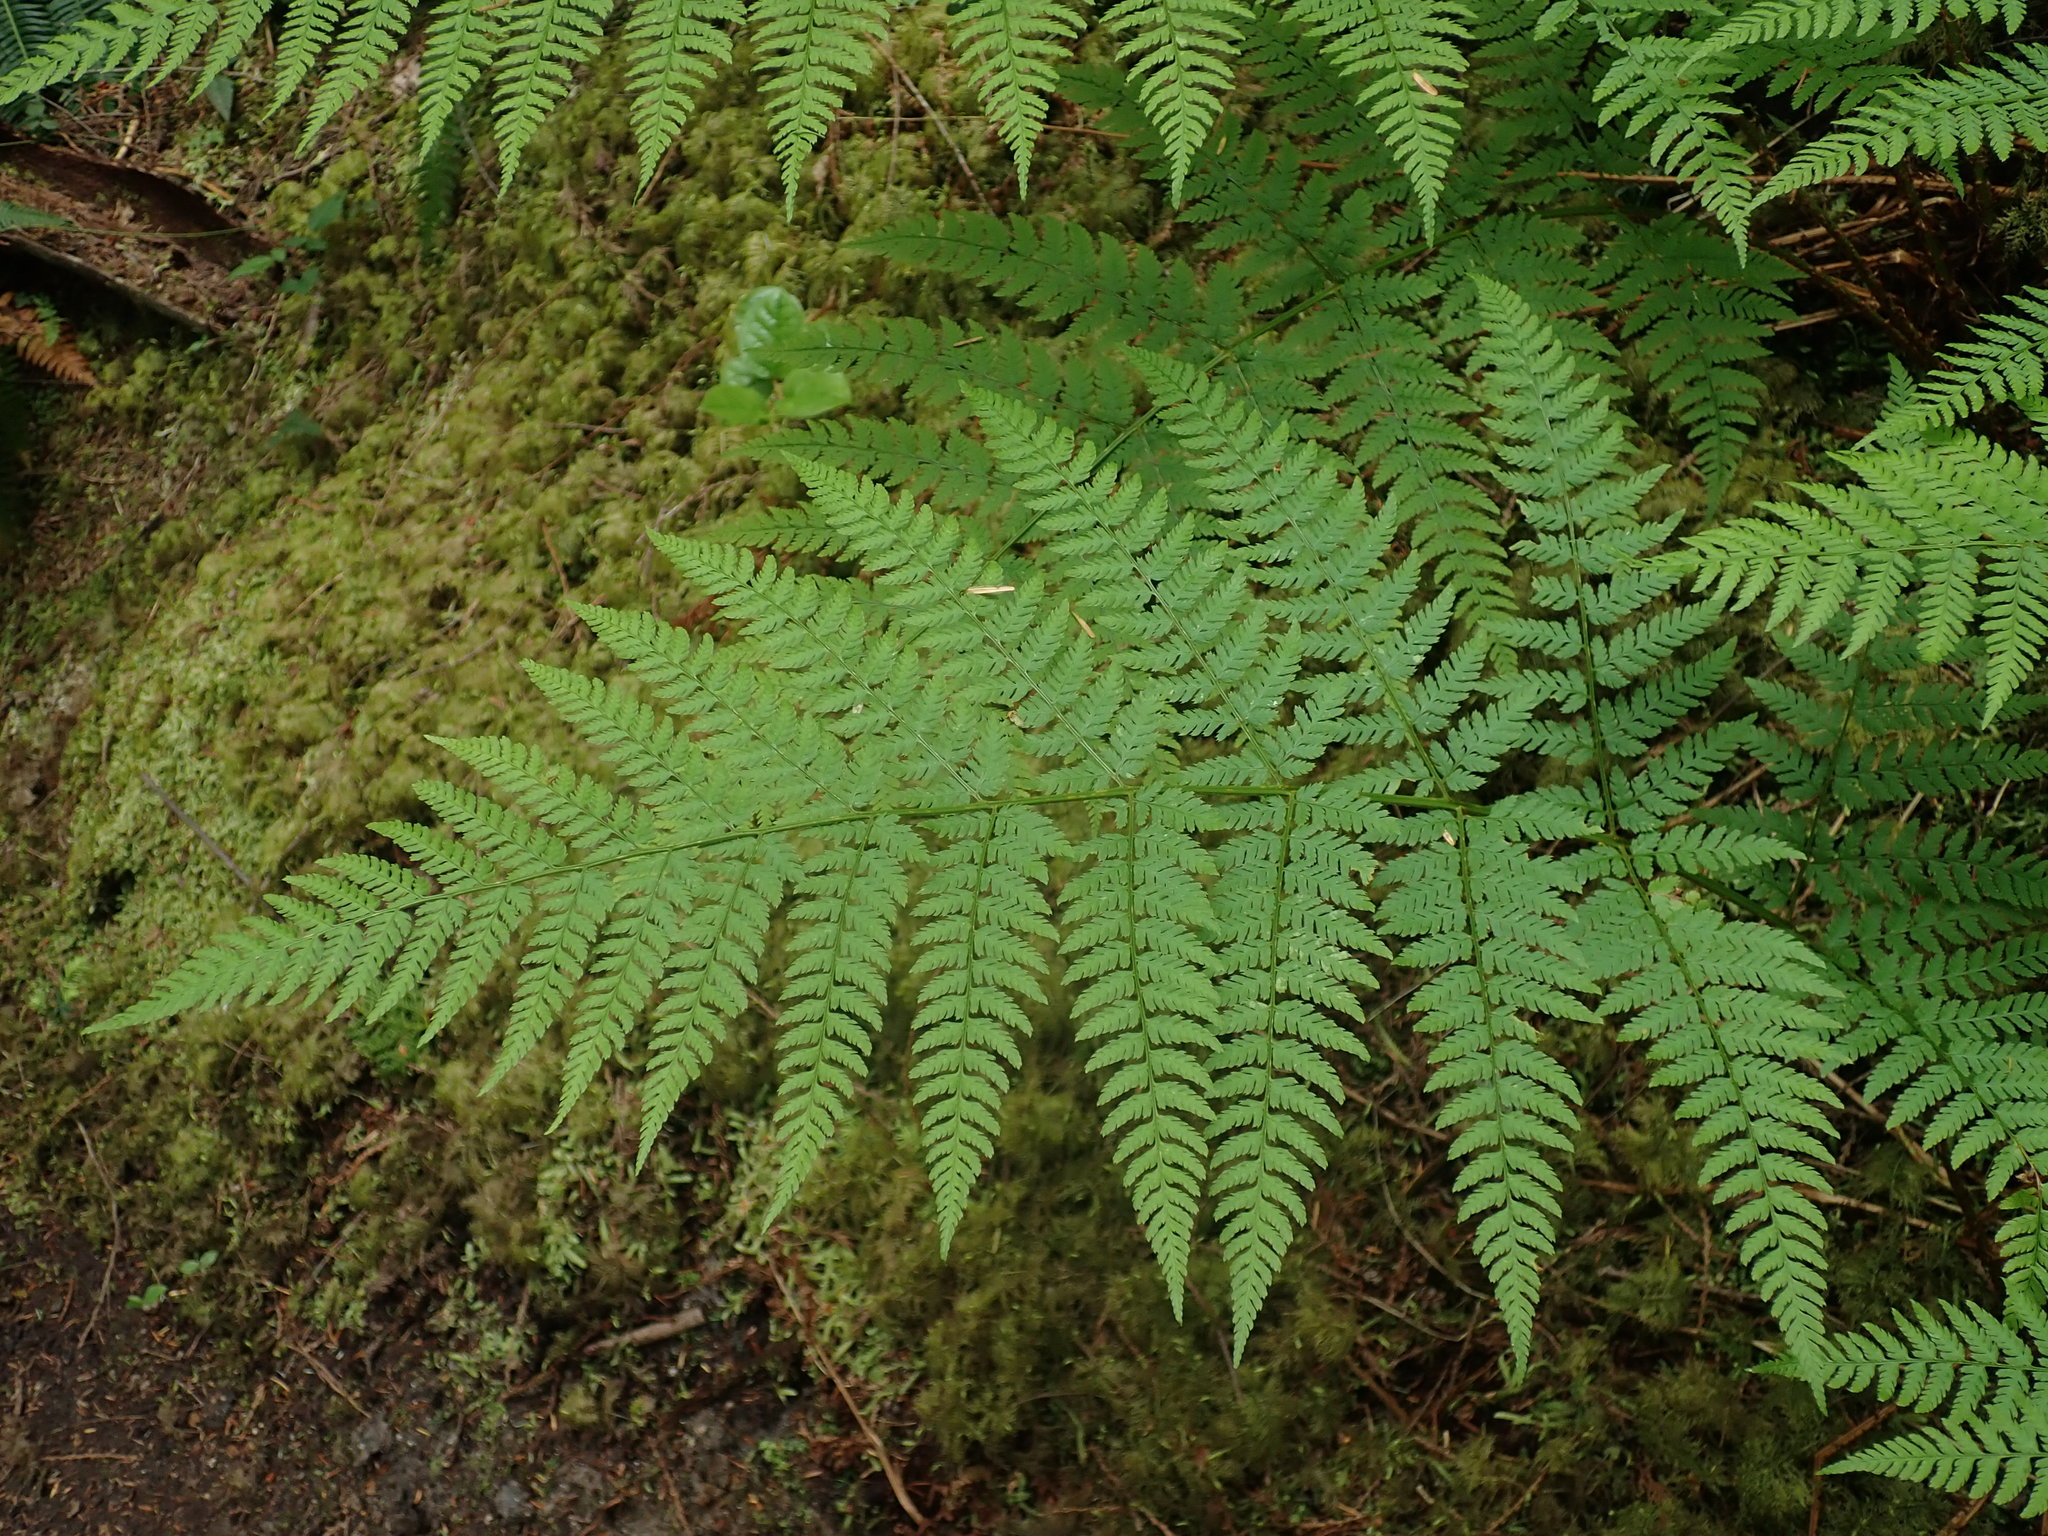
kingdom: Plantae
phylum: Tracheophyta
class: Polypodiopsida
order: Polypodiales
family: Dryopteridaceae
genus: Dryopteris
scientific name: Dryopteris expansa
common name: Northern buckler fern
